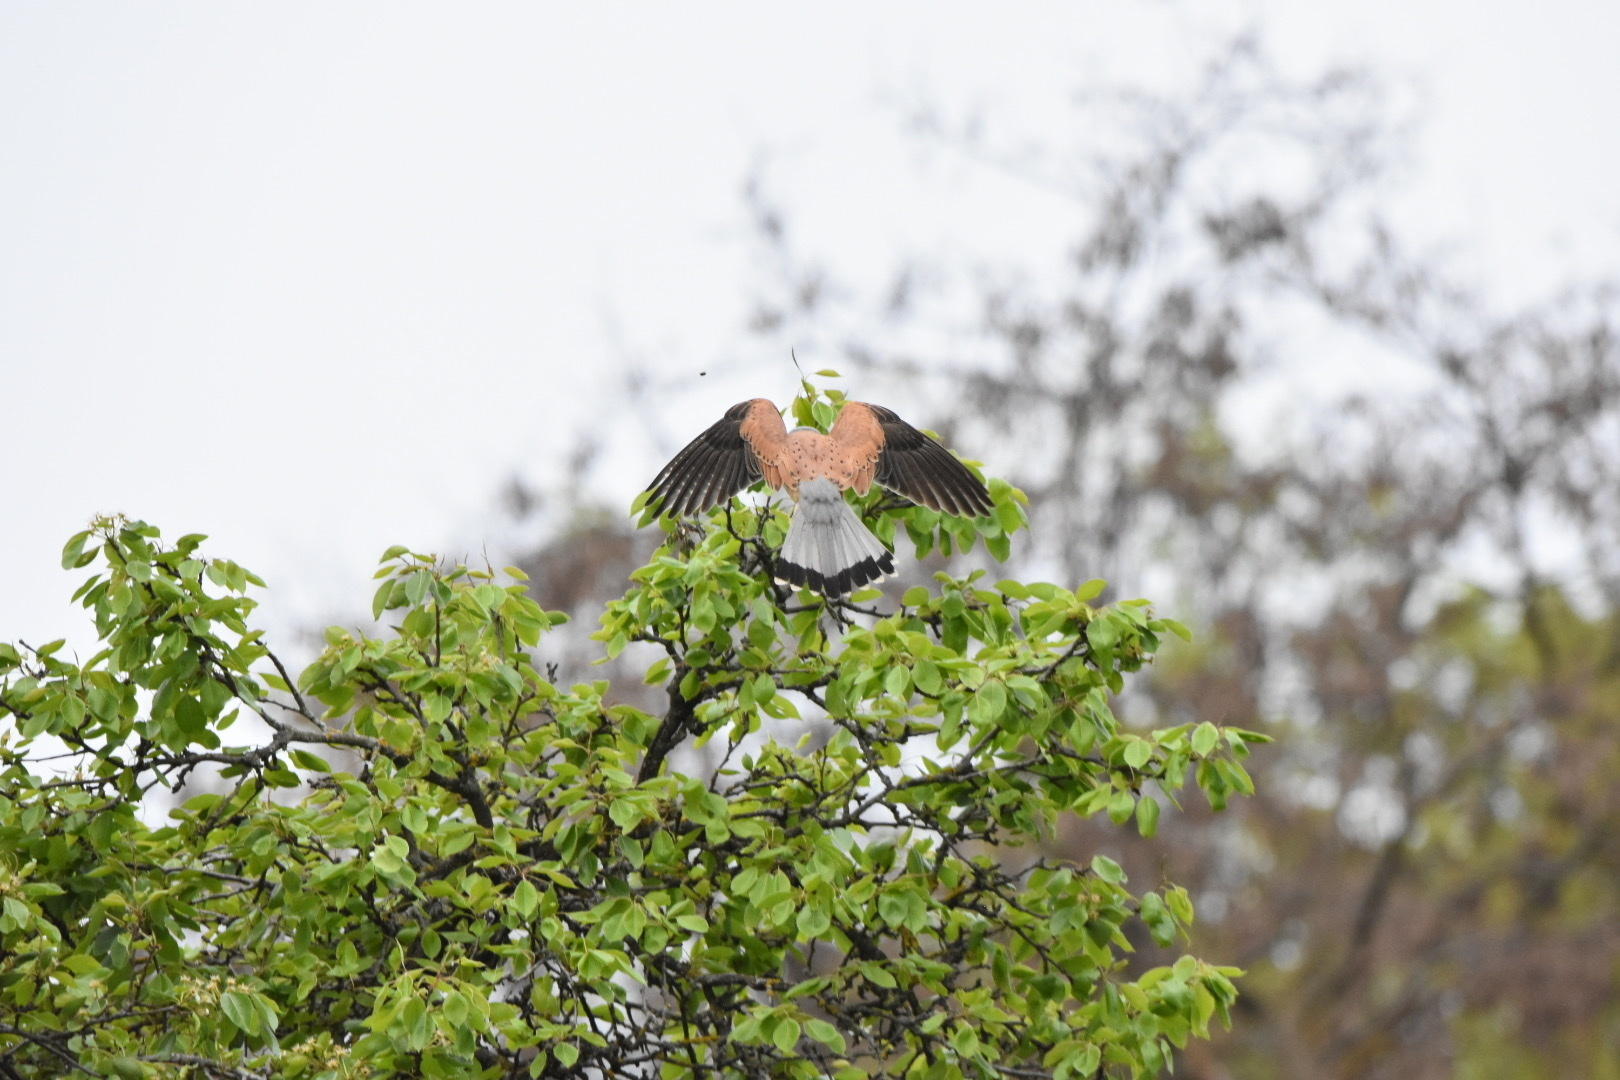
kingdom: Animalia
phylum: Chordata
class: Aves
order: Falconiformes
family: Falconidae
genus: Falco
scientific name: Falco tinnunculus
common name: Common kestrel
